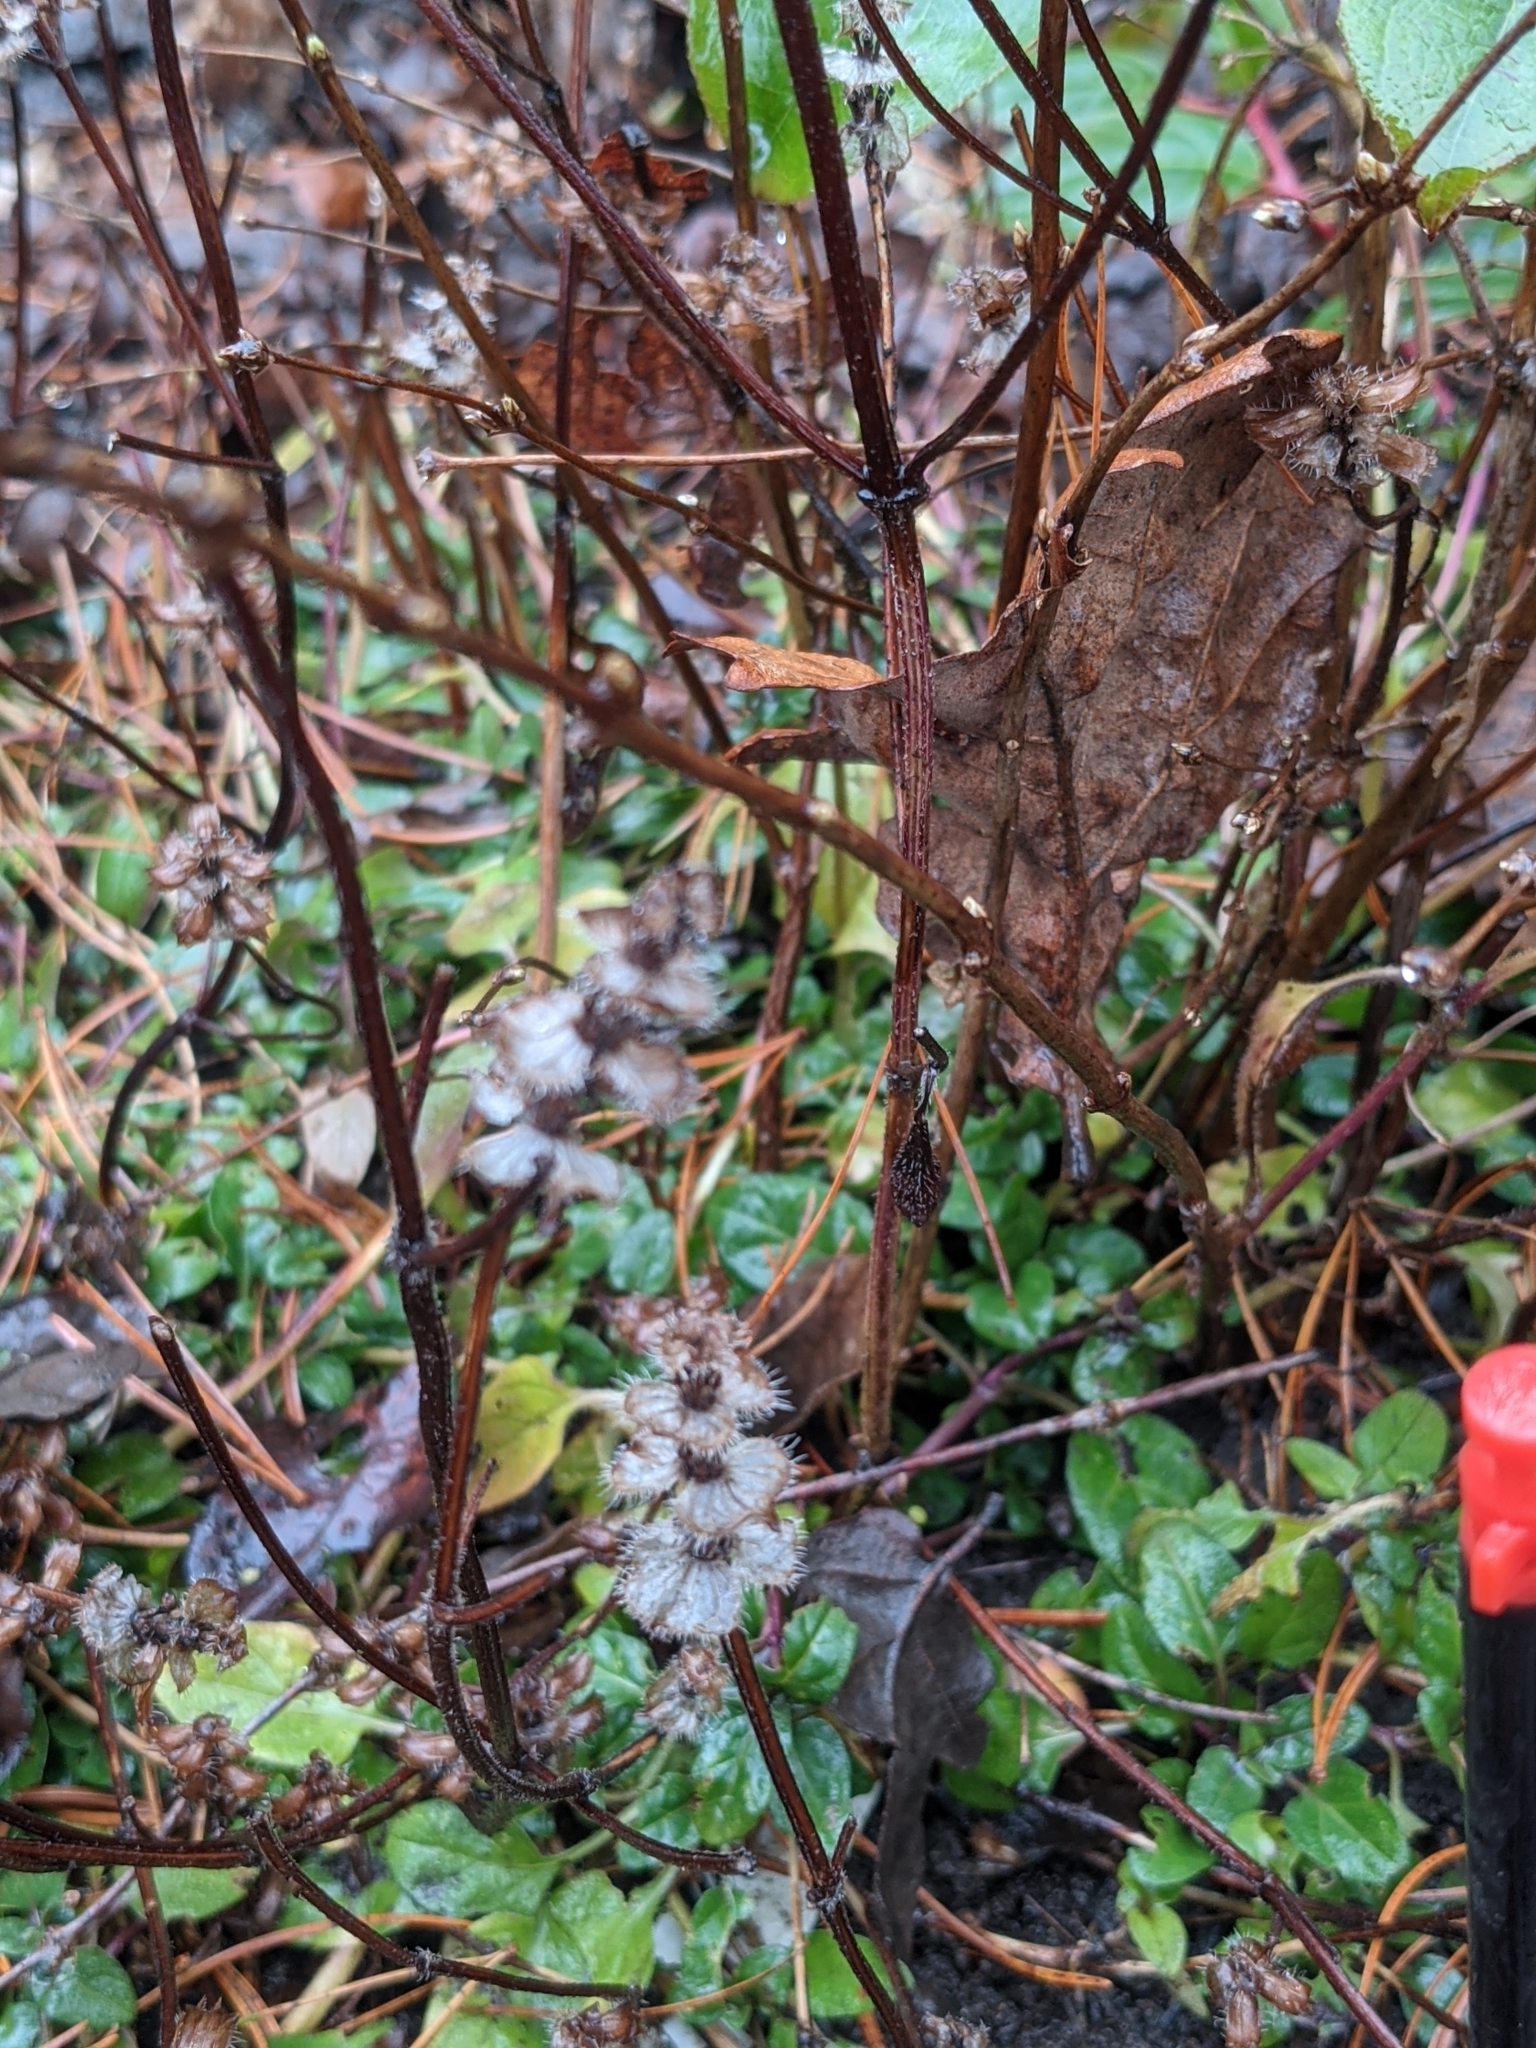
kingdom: Plantae
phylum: Tracheophyta
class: Magnoliopsida
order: Lamiales
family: Lamiaceae
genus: Prunella
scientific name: Prunella vulgaris
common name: Heal-all
